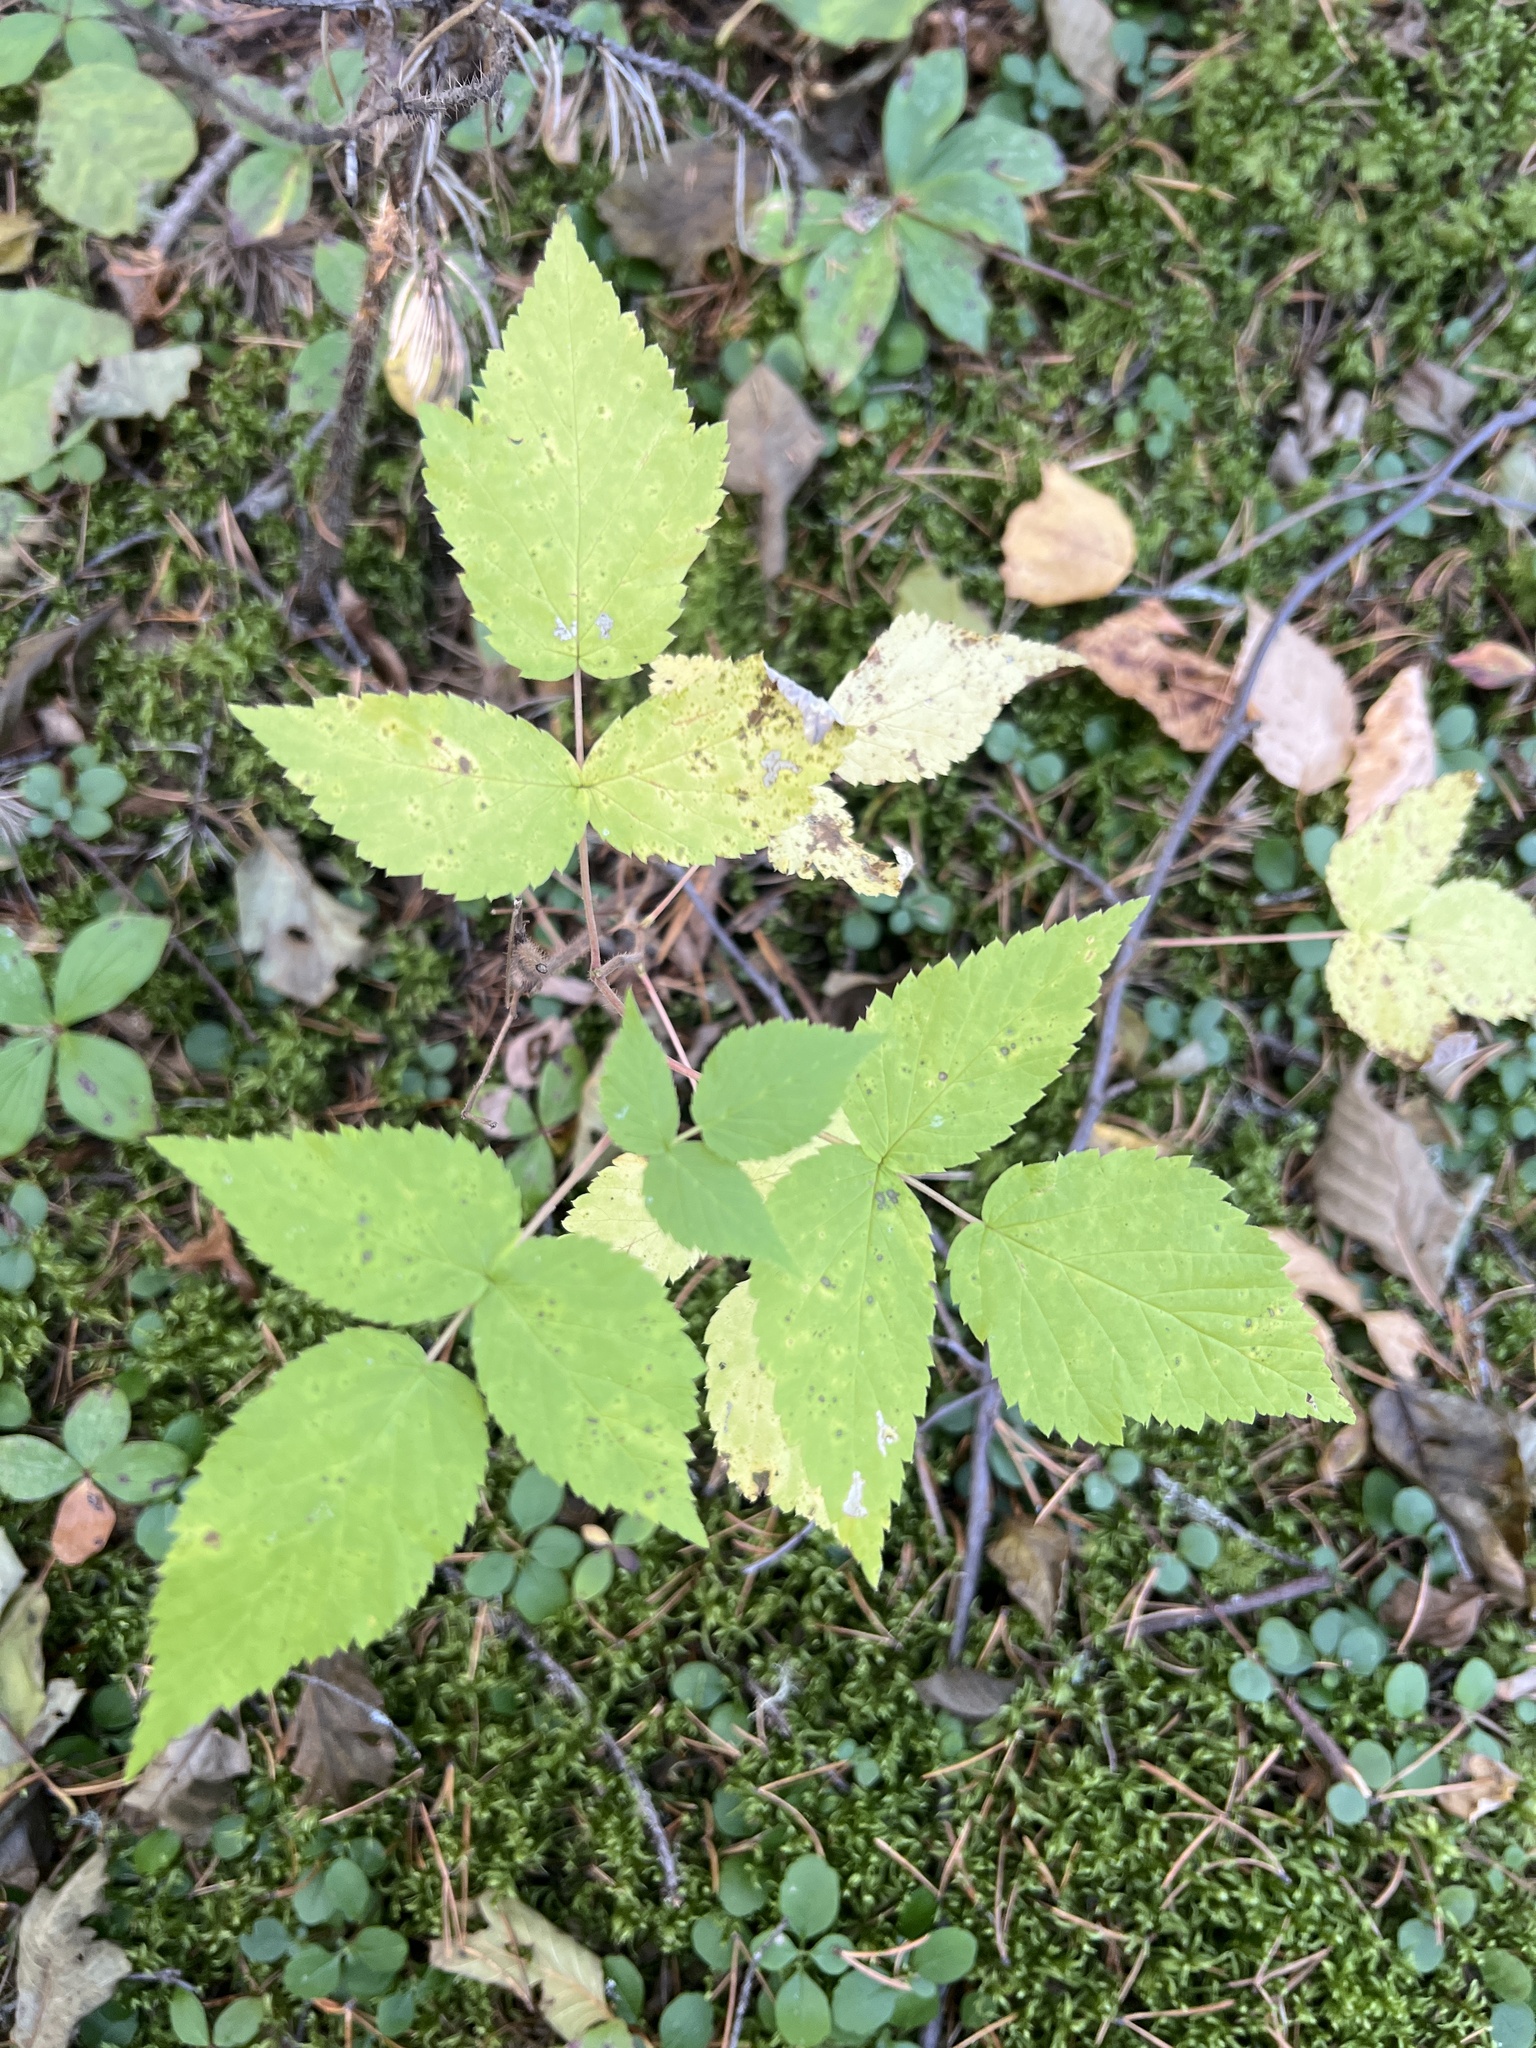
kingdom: Plantae
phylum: Tracheophyta
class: Magnoliopsida
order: Rosales
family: Rosaceae
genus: Rubus
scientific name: Rubus idaeus
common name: Raspberry
